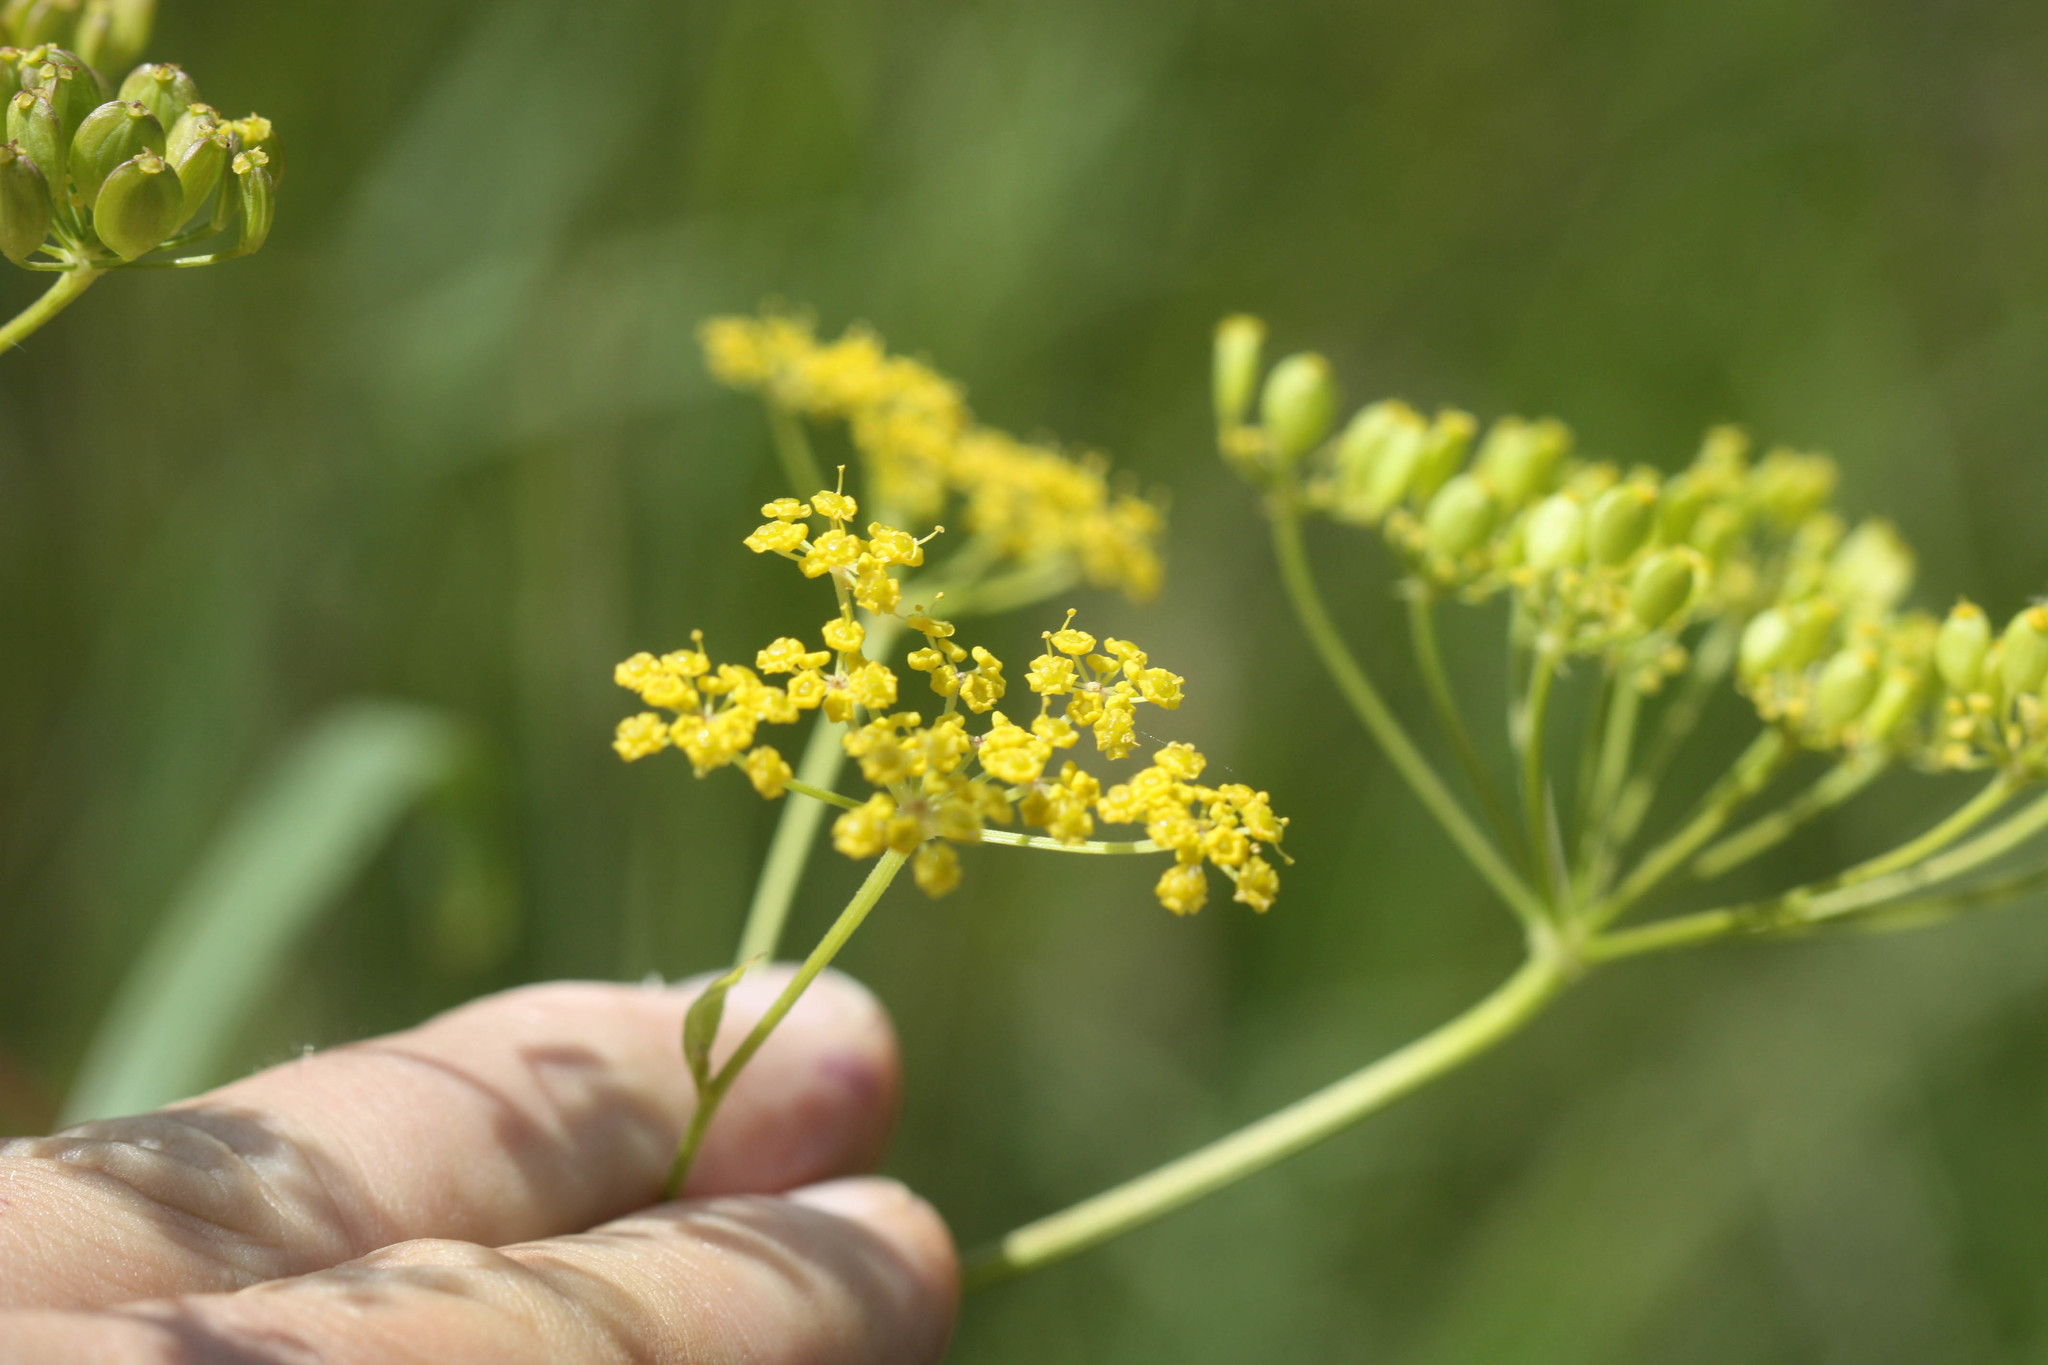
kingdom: Plantae
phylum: Tracheophyta
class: Magnoliopsida
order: Apiales
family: Apiaceae
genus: Pastinaca
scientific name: Pastinaca sativa
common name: Wild parsnip
